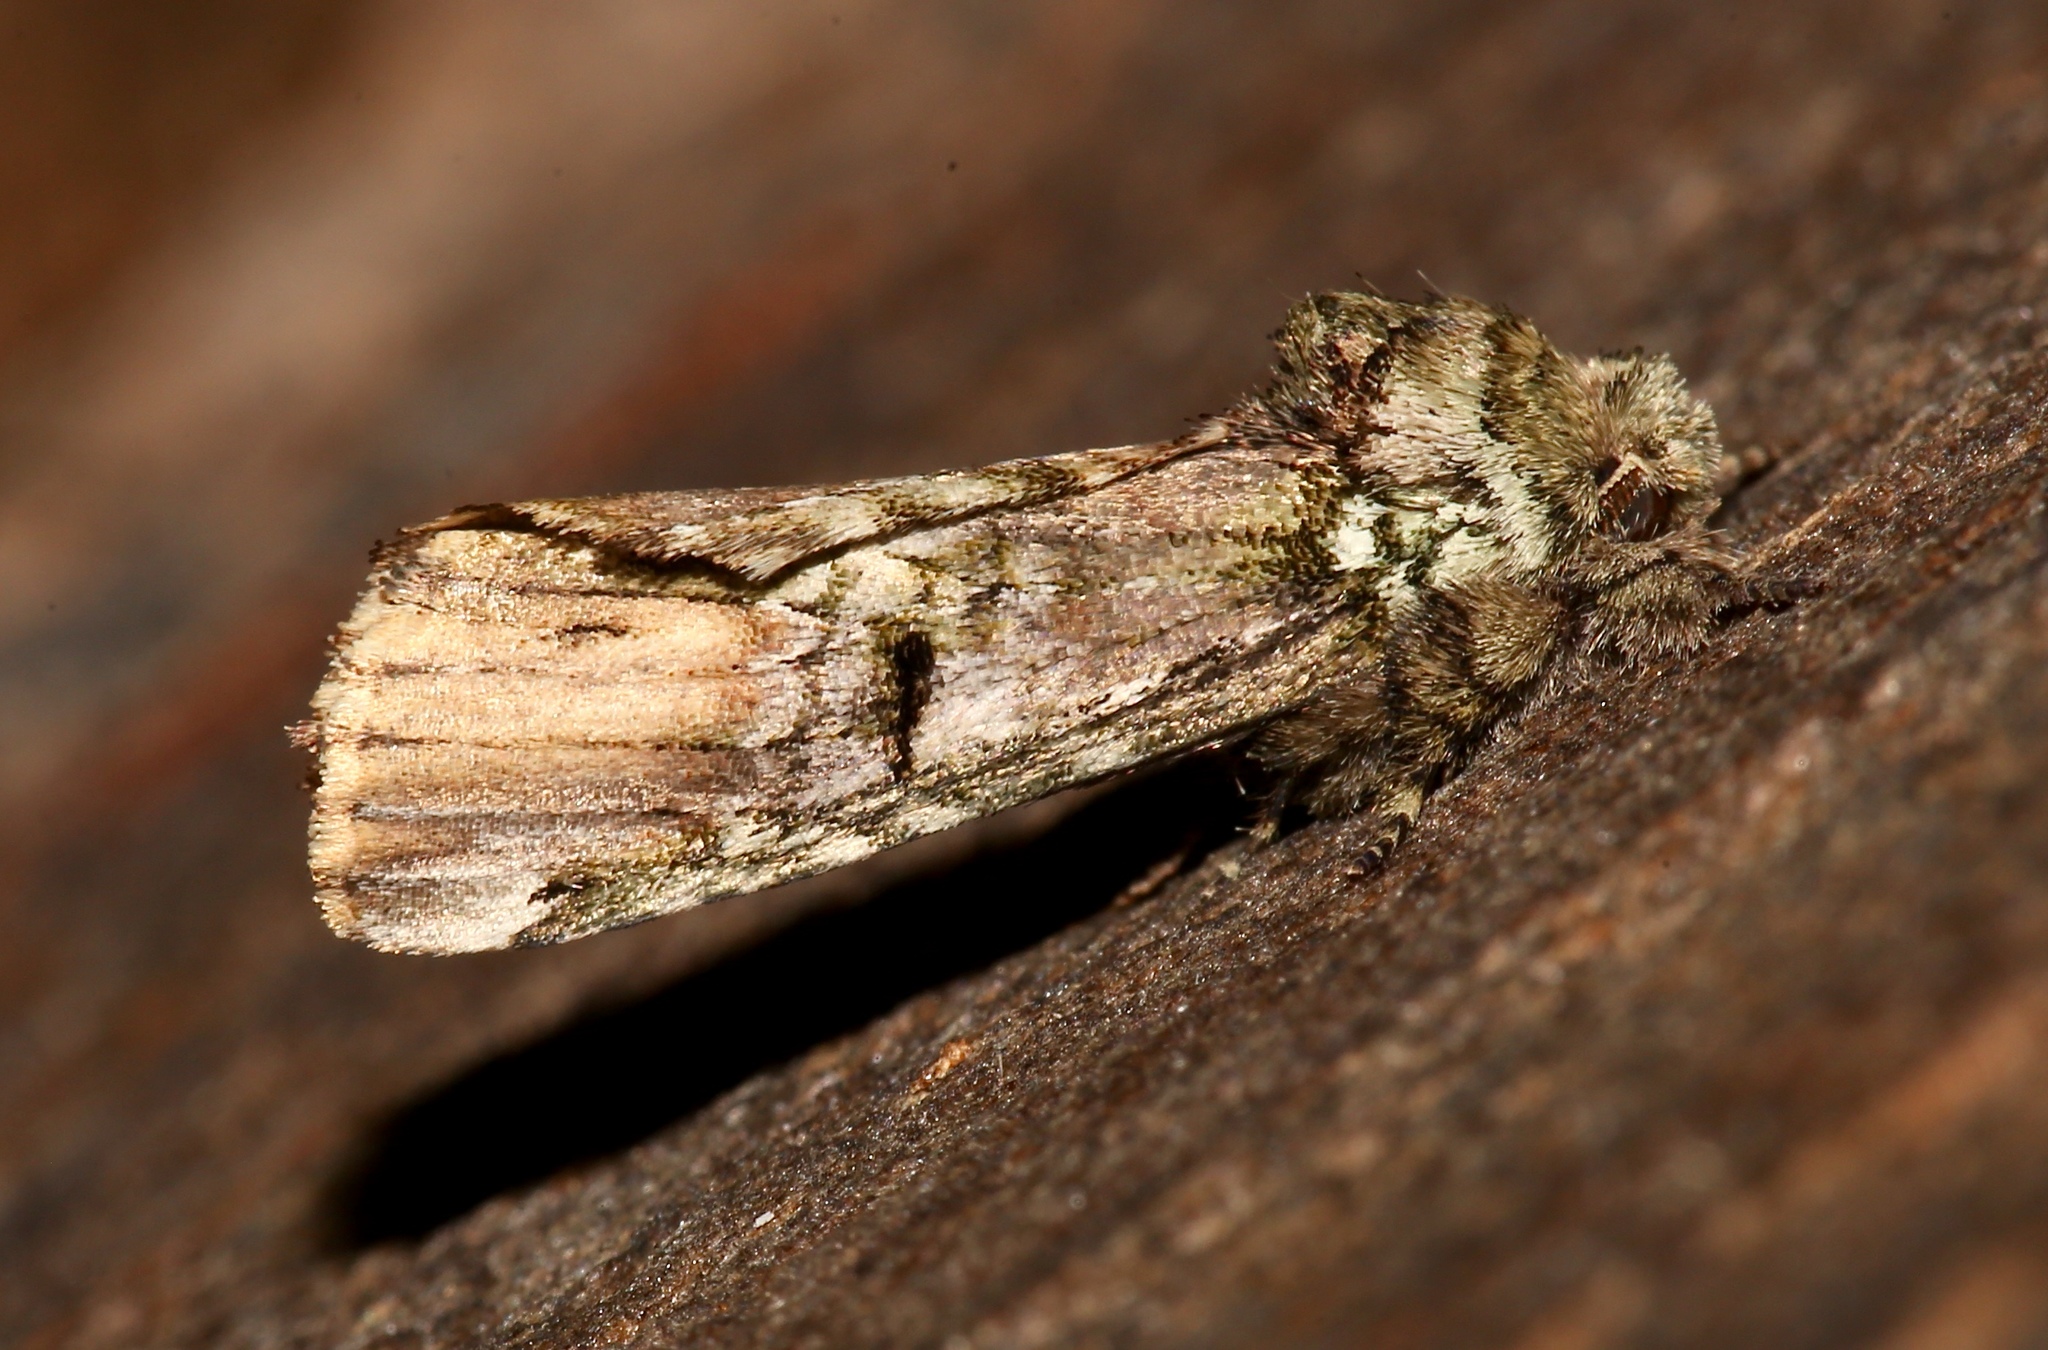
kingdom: Animalia
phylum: Arthropoda
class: Insecta
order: Lepidoptera
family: Notodontidae
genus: Schizura
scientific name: Schizura
